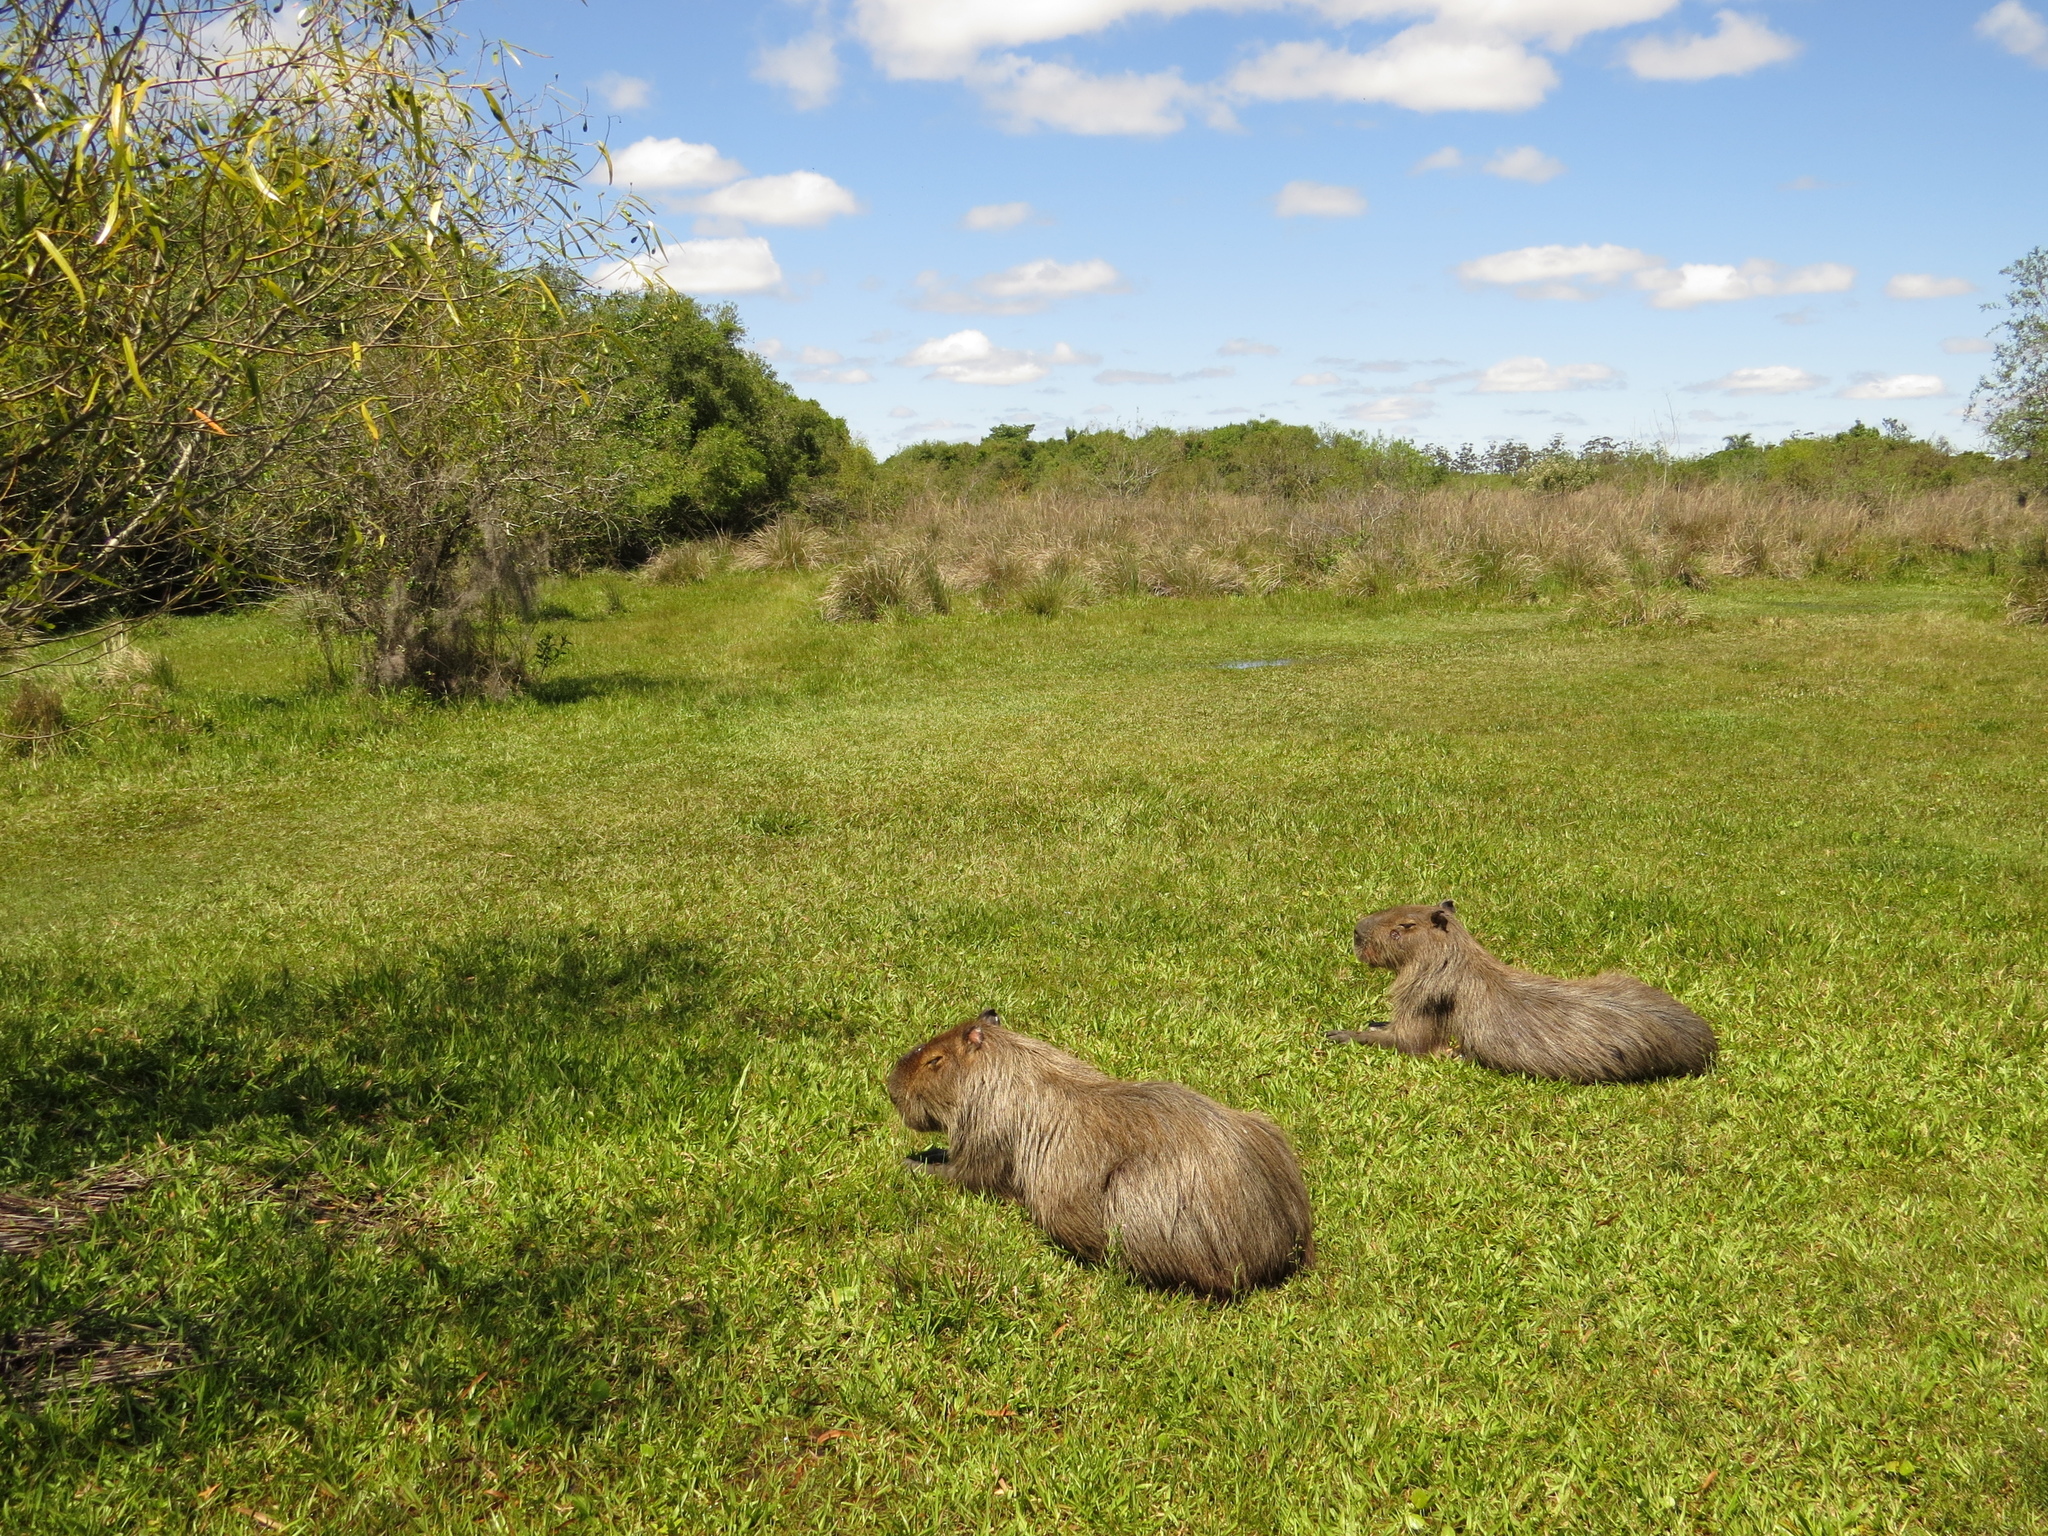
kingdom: Animalia
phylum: Chordata
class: Mammalia
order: Rodentia
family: Caviidae
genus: Hydrochoerus
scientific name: Hydrochoerus hydrochaeris
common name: Capybara
